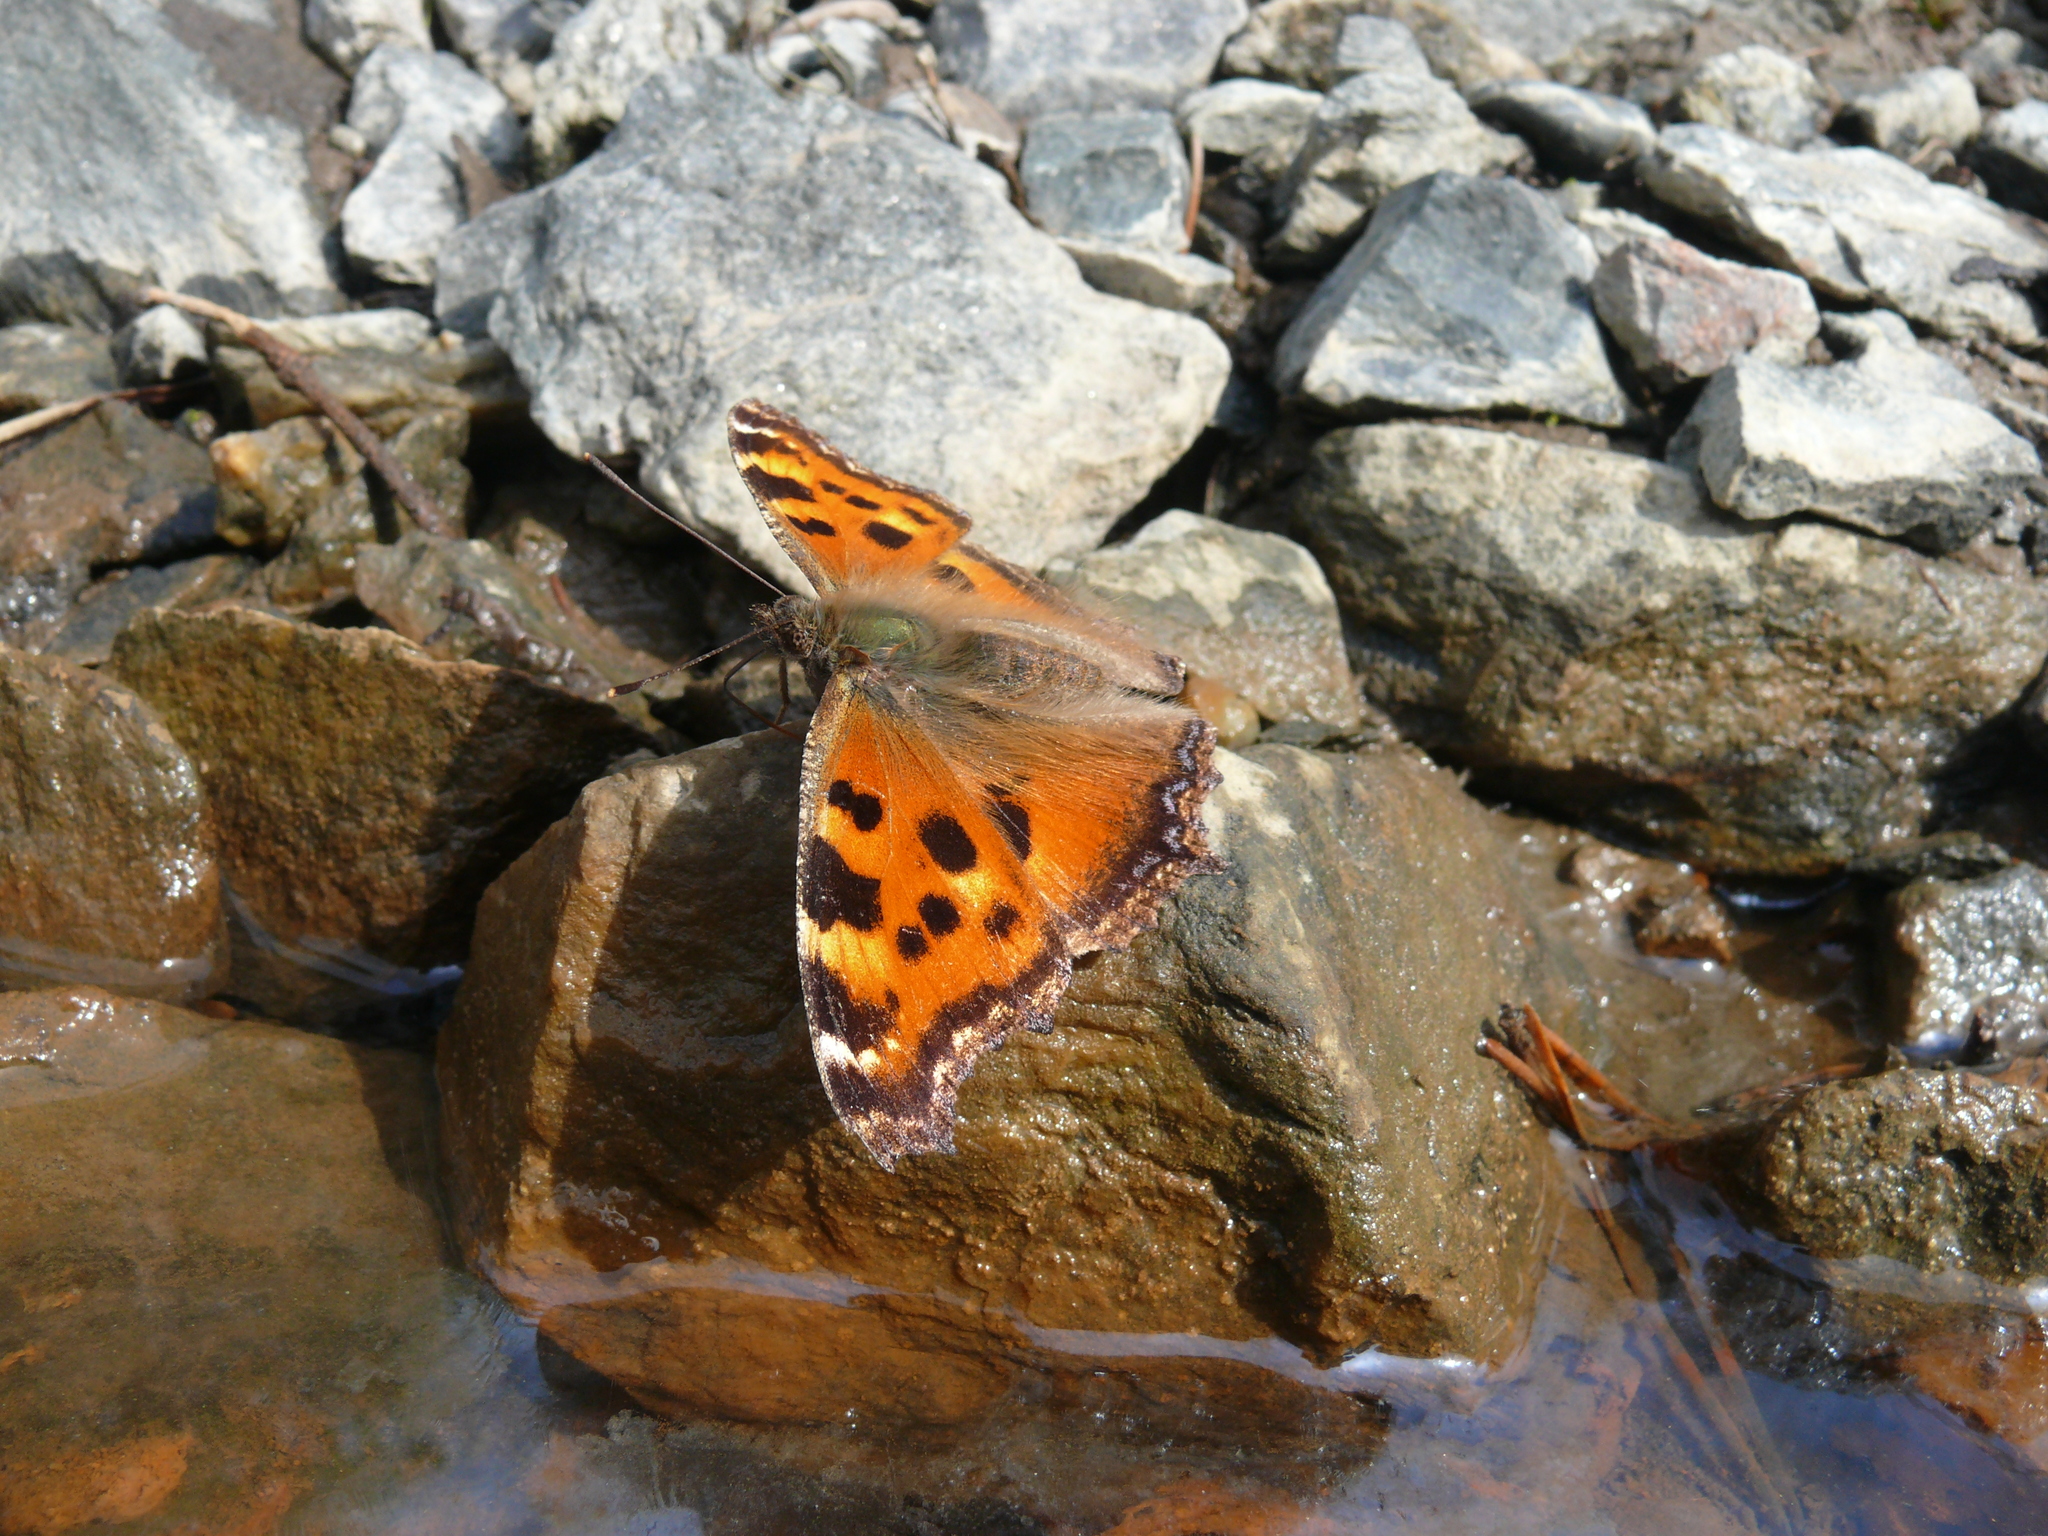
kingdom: Animalia
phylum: Arthropoda
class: Insecta
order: Lepidoptera
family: Nymphalidae
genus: Nymphalis
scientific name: Nymphalis xanthomelas
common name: Scarce tortoiseshell
